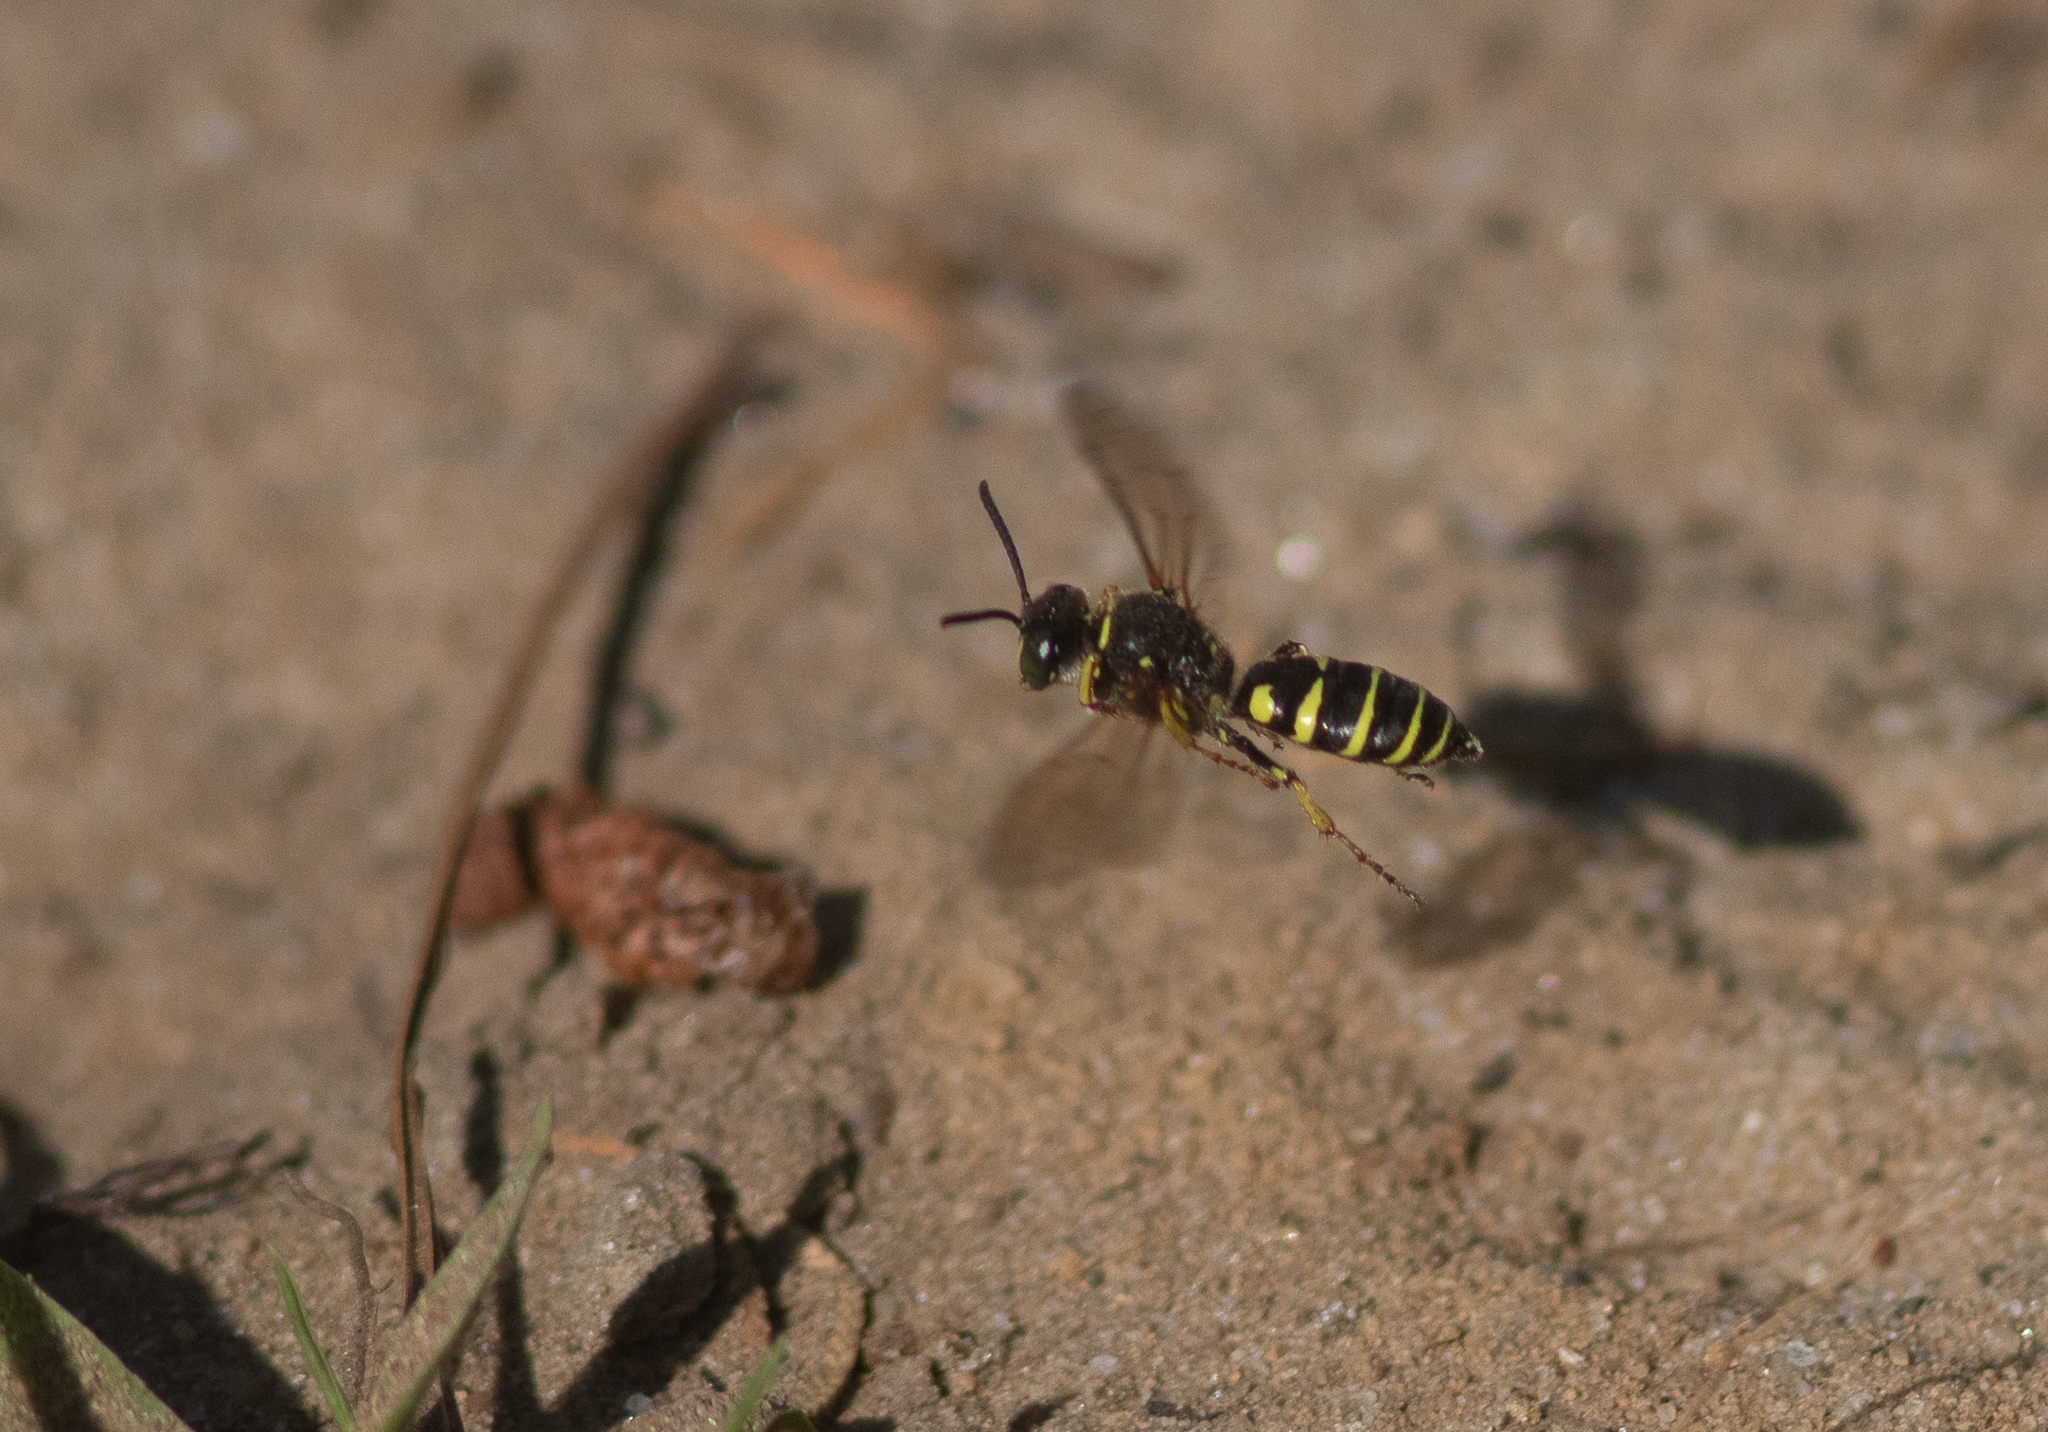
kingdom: Animalia
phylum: Arthropoda
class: Insecta
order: Hymenoptera
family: Crabronidae
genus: Aphilanthops
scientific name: Aphilanthops frigidus
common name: Queen ant kidnapper
